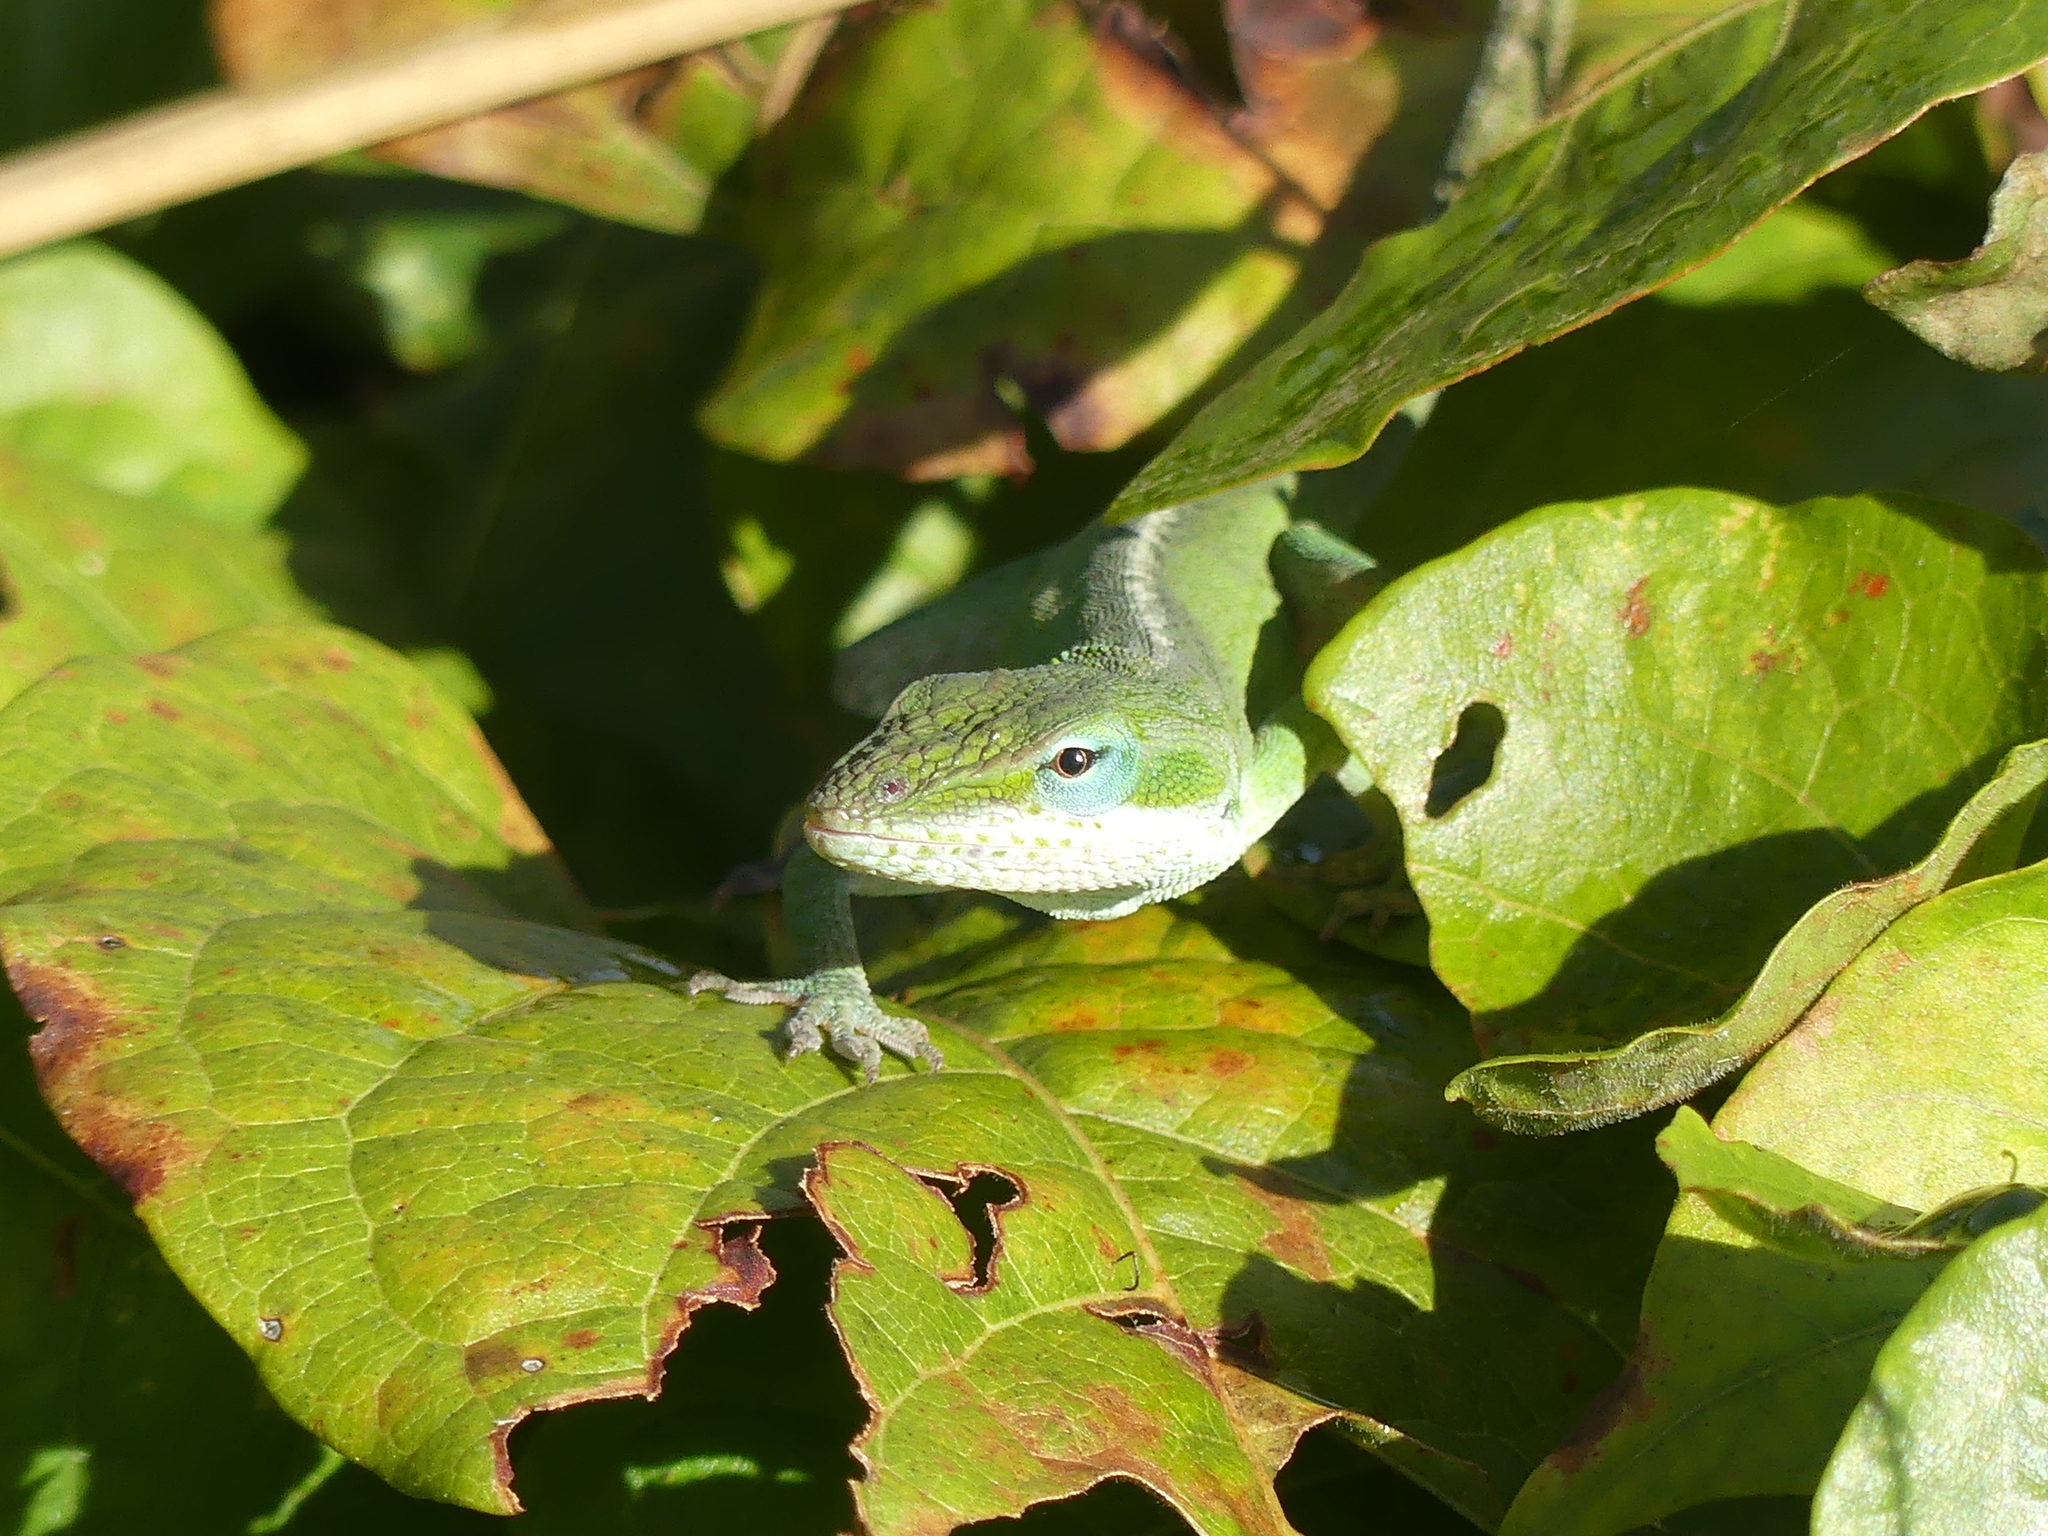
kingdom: Animalia
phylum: Chordata
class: Squamata
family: Dactyloidae
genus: Anolis
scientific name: Anolis carolinensis
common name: Green anole
